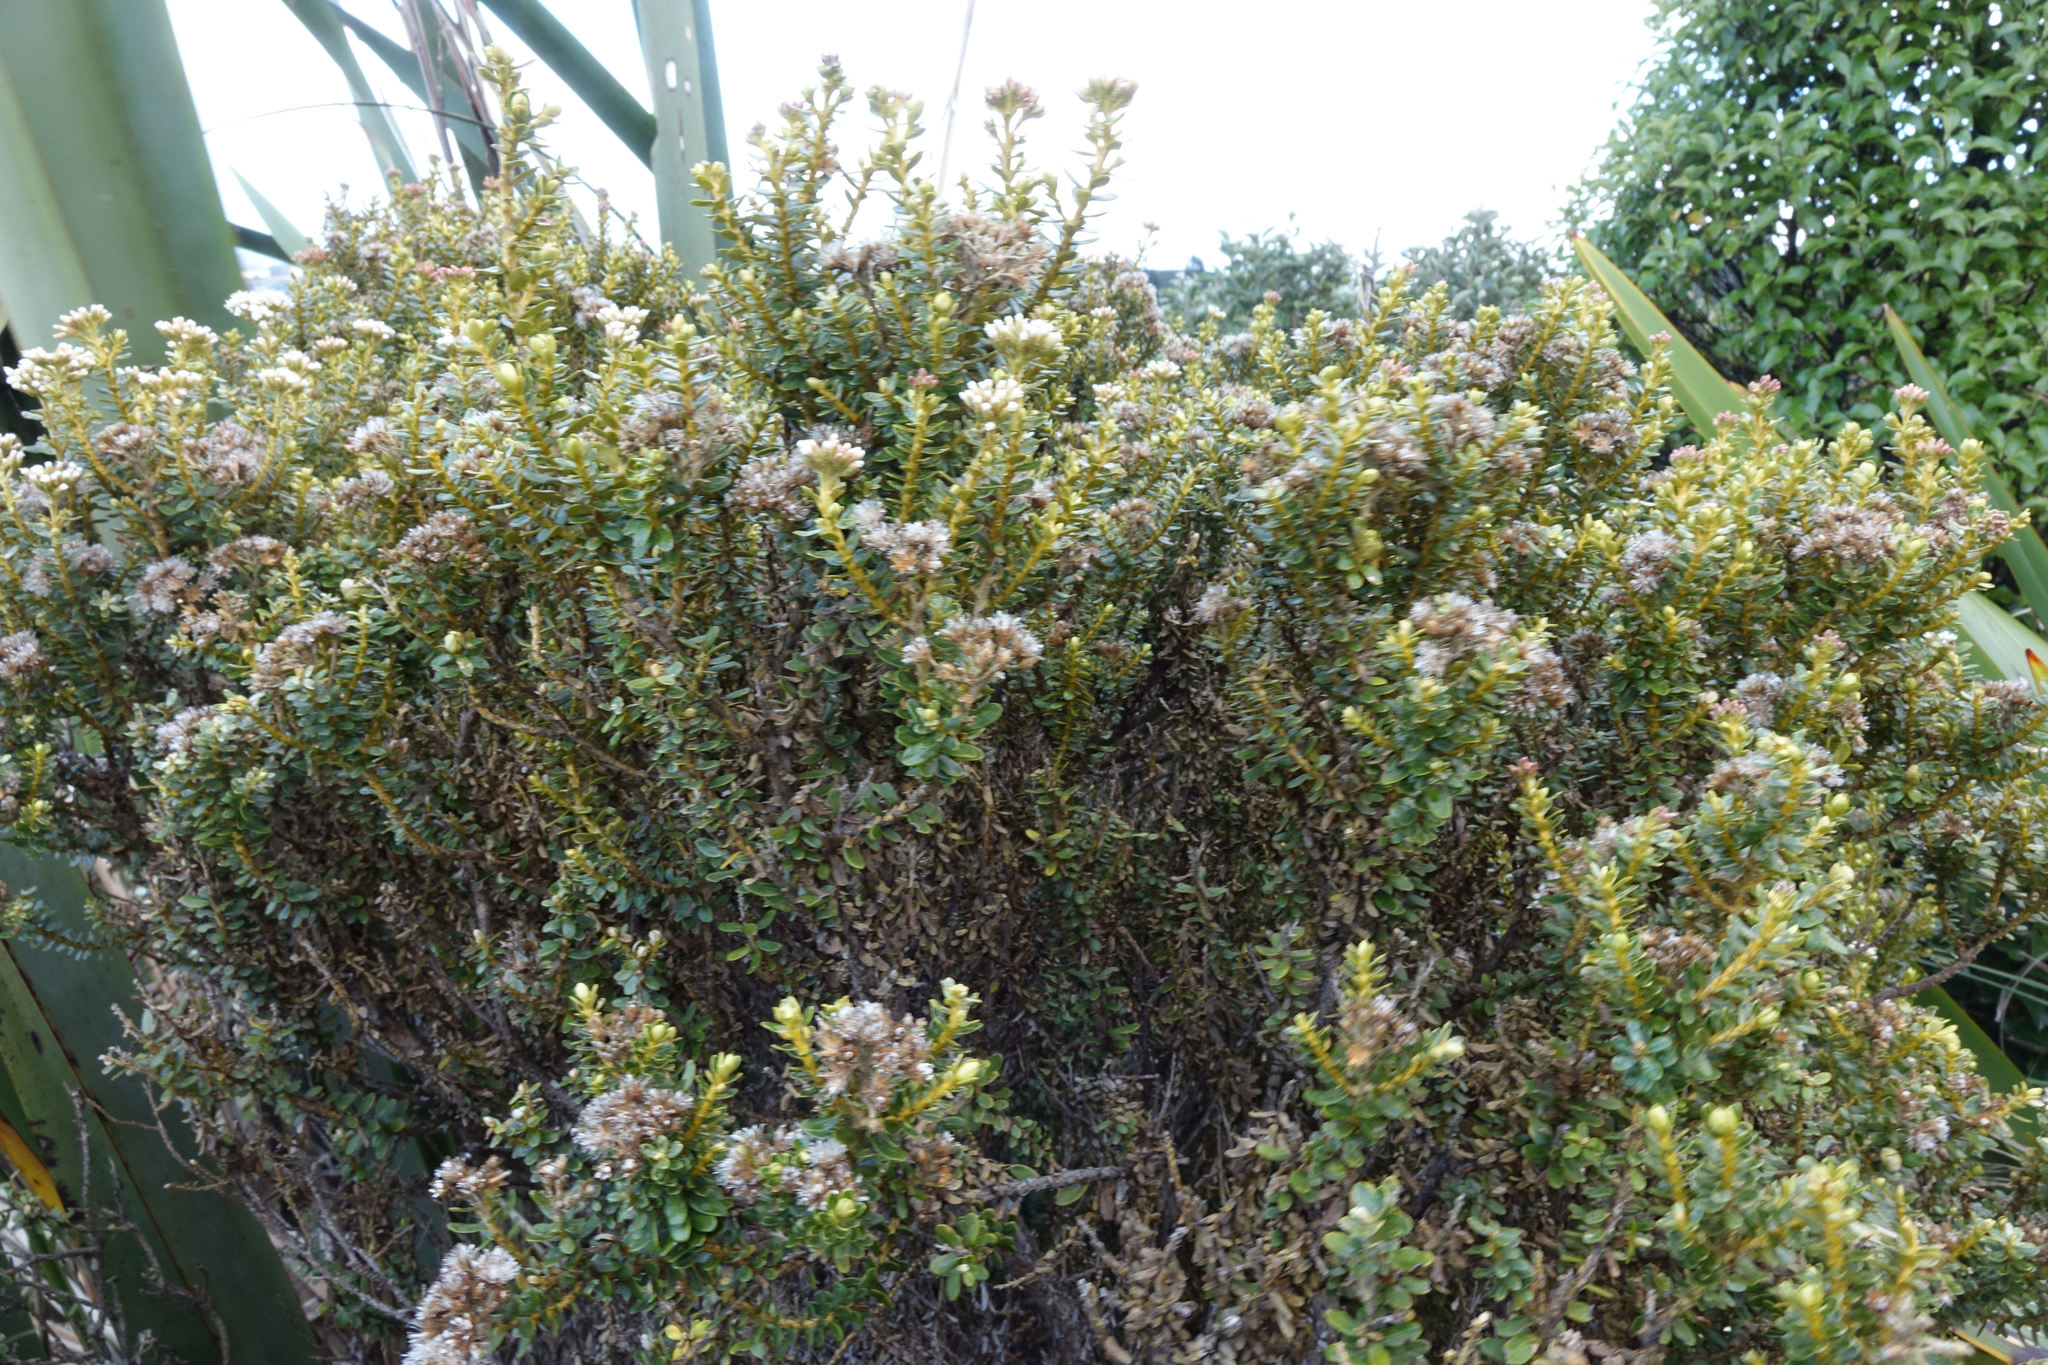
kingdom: Plantae
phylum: Tracheophyta
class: Magnoliopsida
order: Asterales
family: Asteraceae
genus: Ozothamnus
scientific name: Ozothamnus leptophyllus
